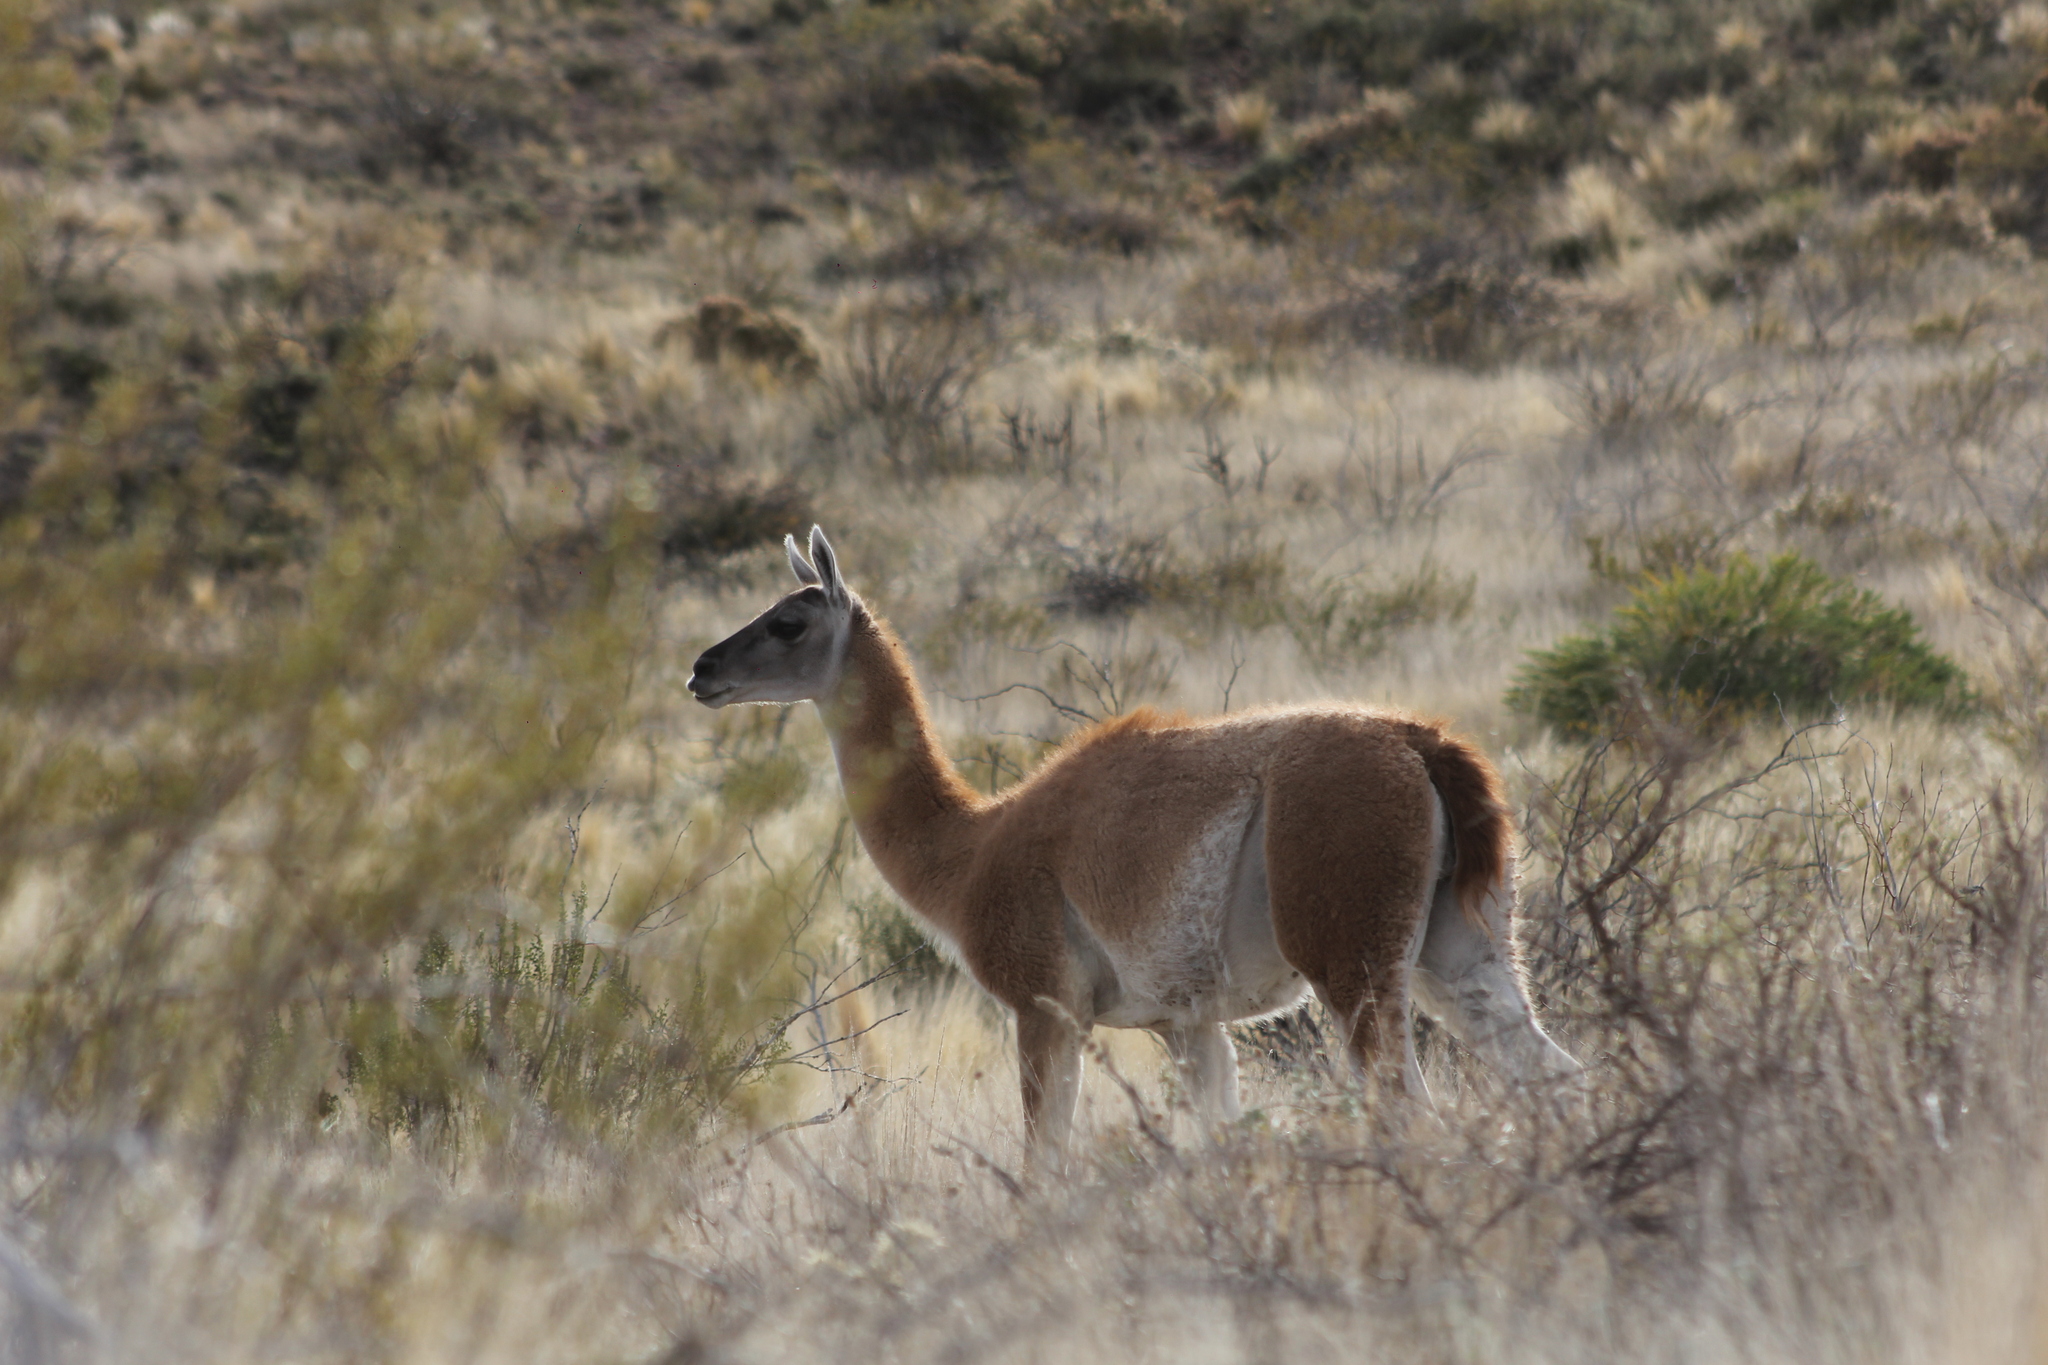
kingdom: Animalia
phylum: Chordata
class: Mammalia
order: Artiodactyla
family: Camelidae
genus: Lama
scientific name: Lama glama
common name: Llama
